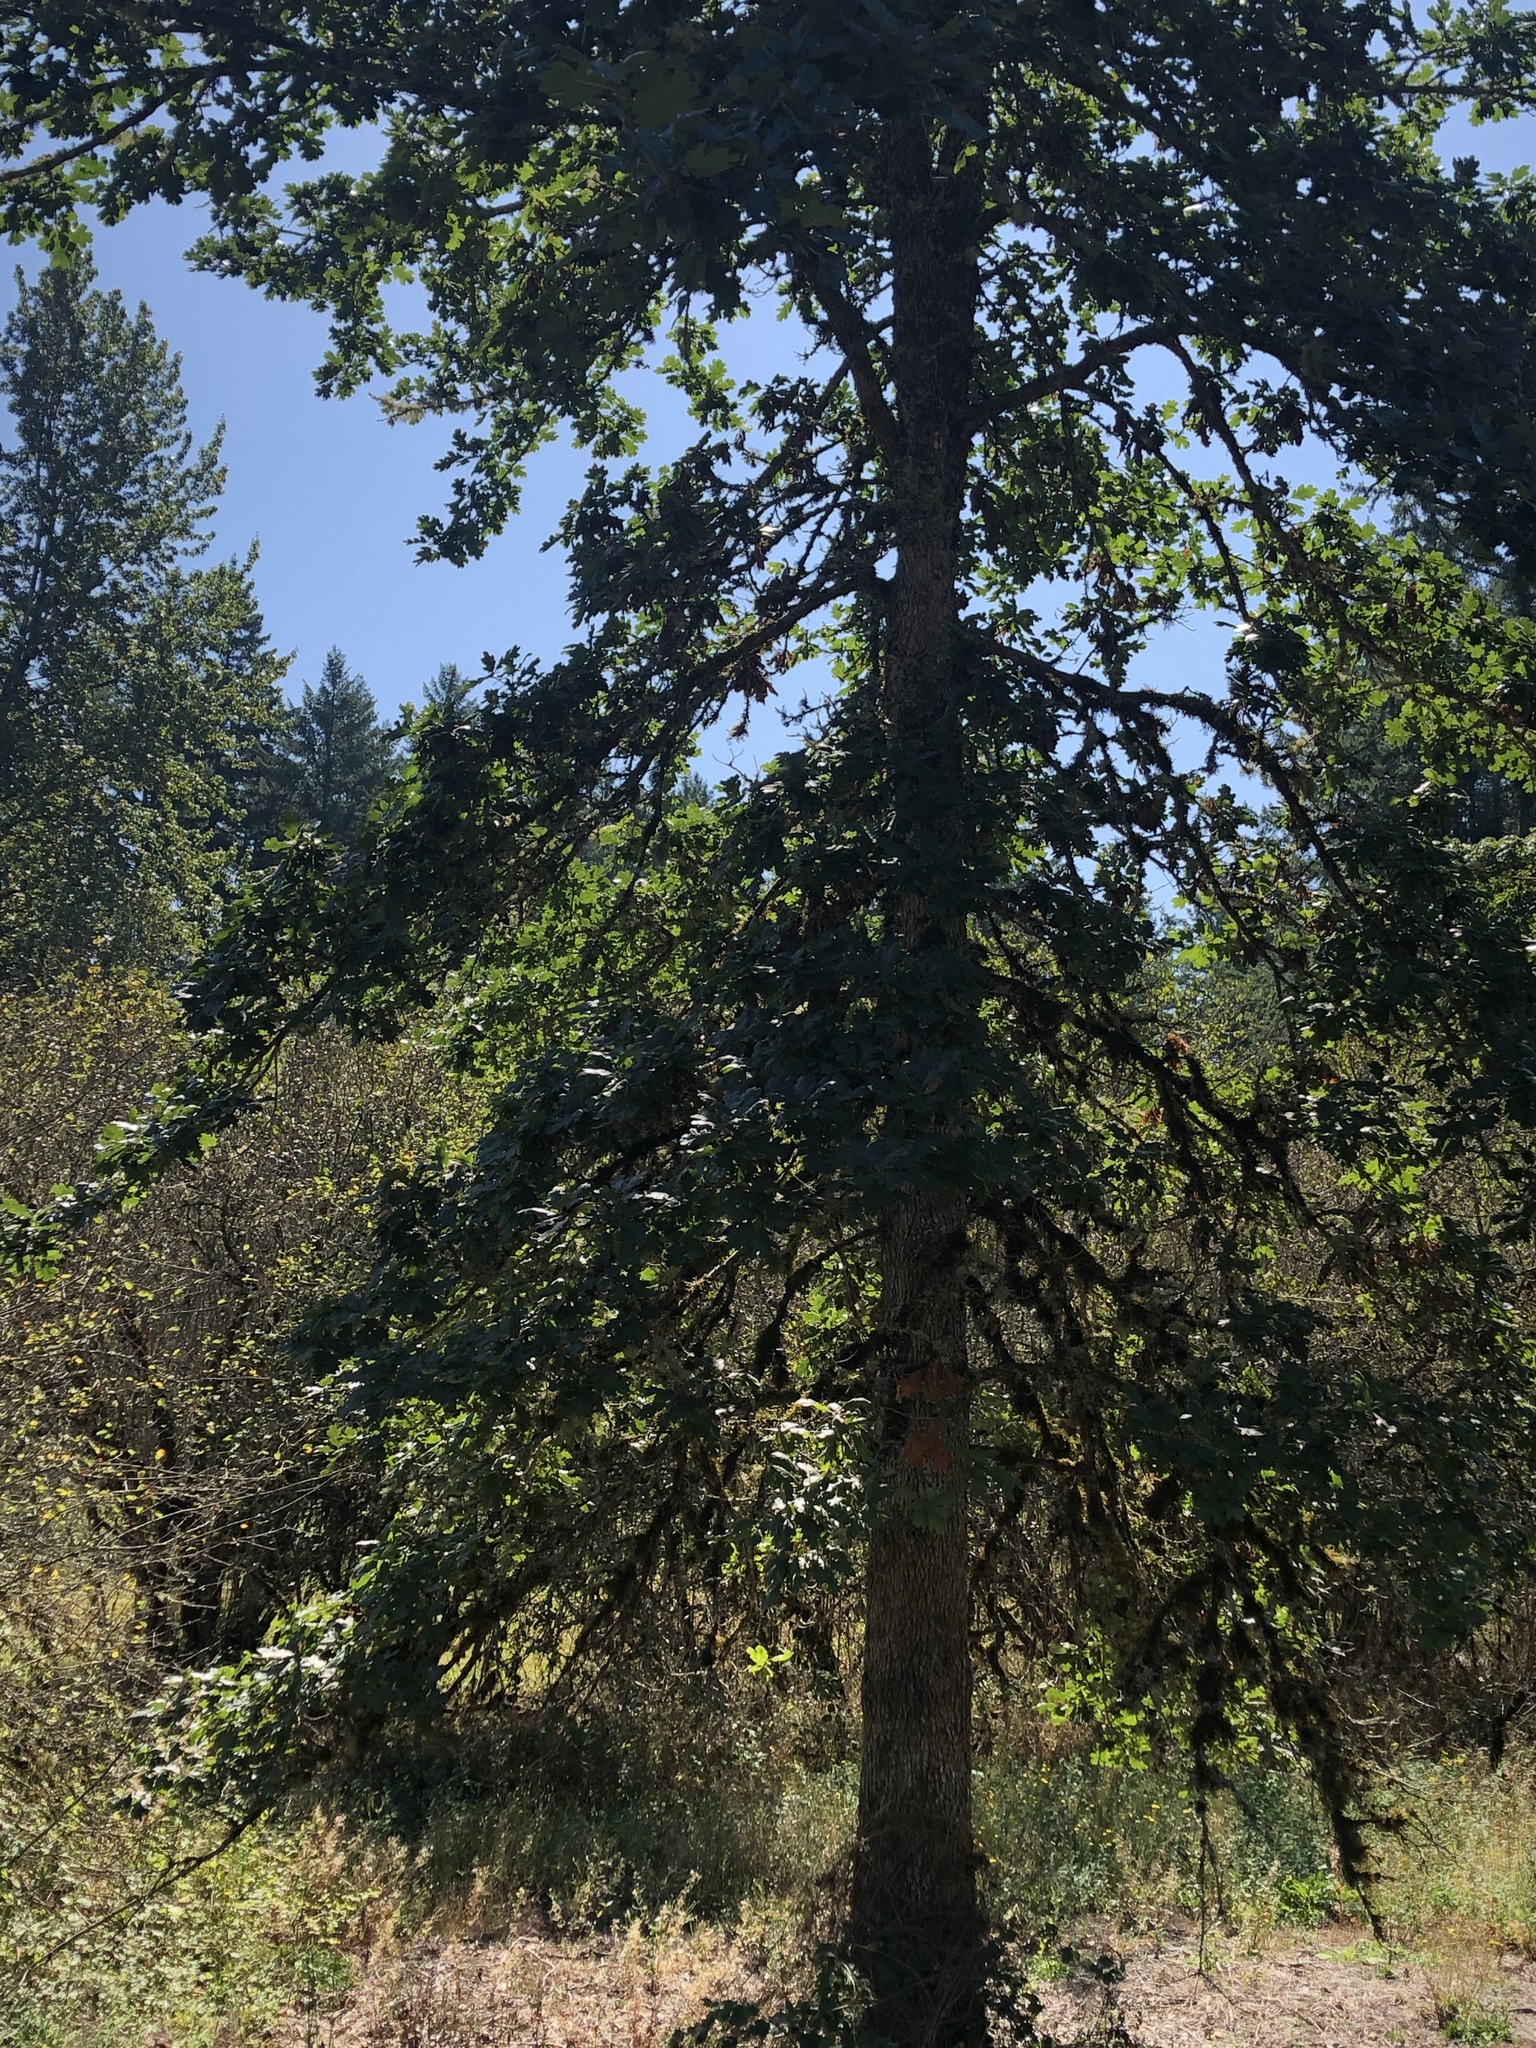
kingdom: Plantae
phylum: Tracheophyta
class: Magnoliopsida
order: Fagales
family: Fagaceae
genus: Quercus
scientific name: Quercus garryana
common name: Garry oak
